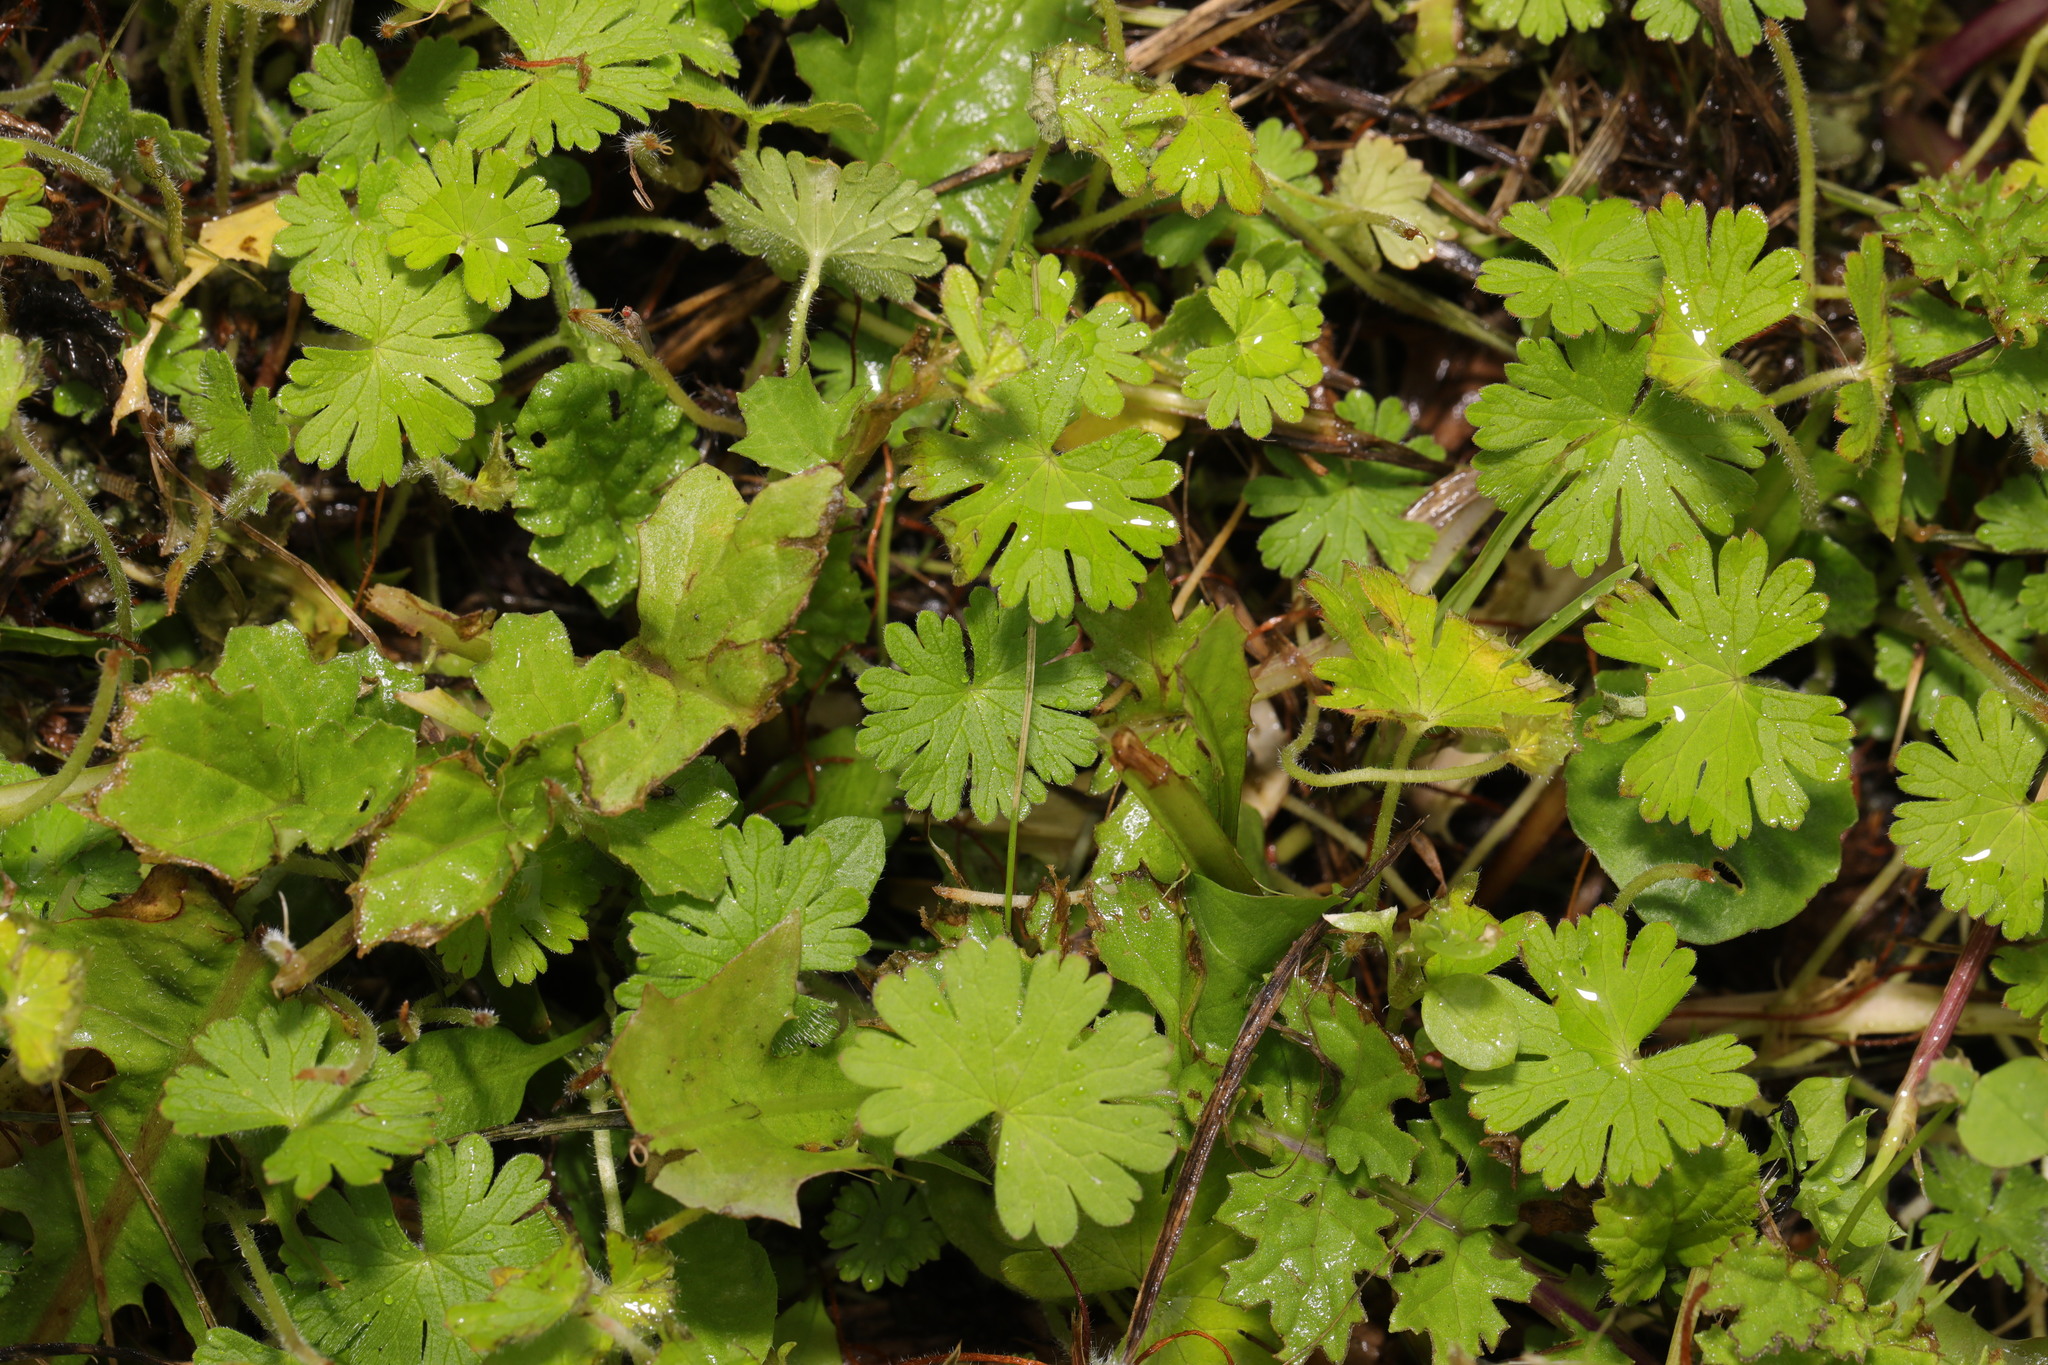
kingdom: Plantae
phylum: Tracheophyta
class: Magnoliopsida
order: Geraniales
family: Geraniaceae
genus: Geranium
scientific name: Geranium molle
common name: Dove's-foot crane's-bill
